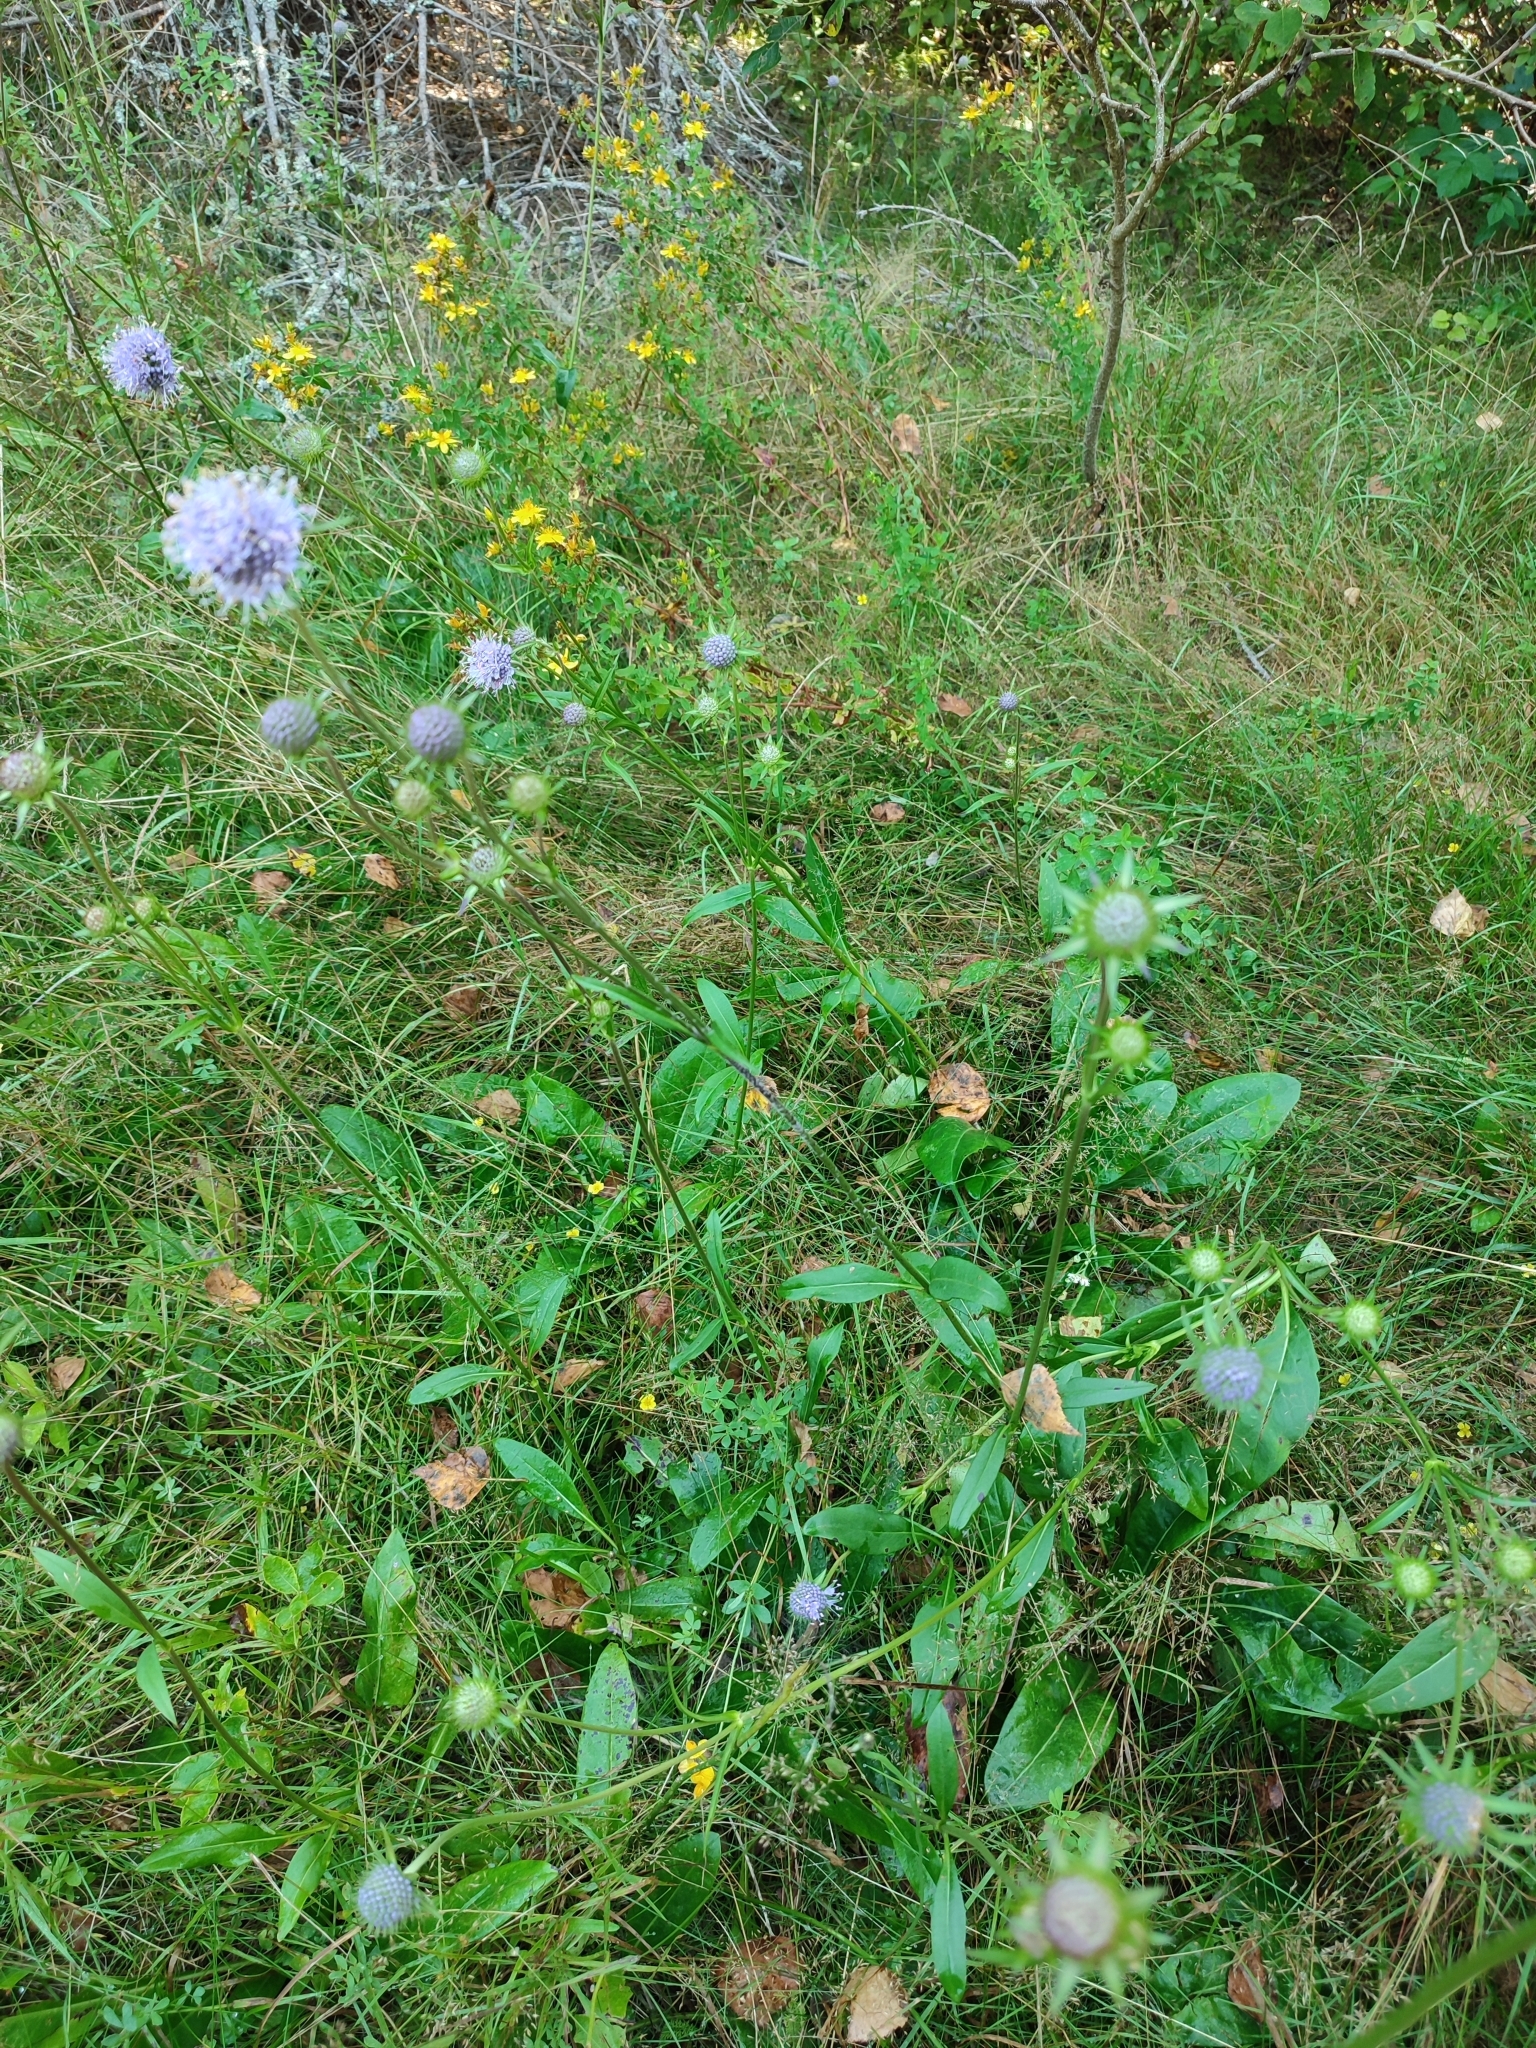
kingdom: Plantae
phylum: Tracheophyta
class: Magnoliopsida
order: Dipsacales
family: Caprifoliaceae
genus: Succisa
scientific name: Succisa pratensis
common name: Devil's-bit
